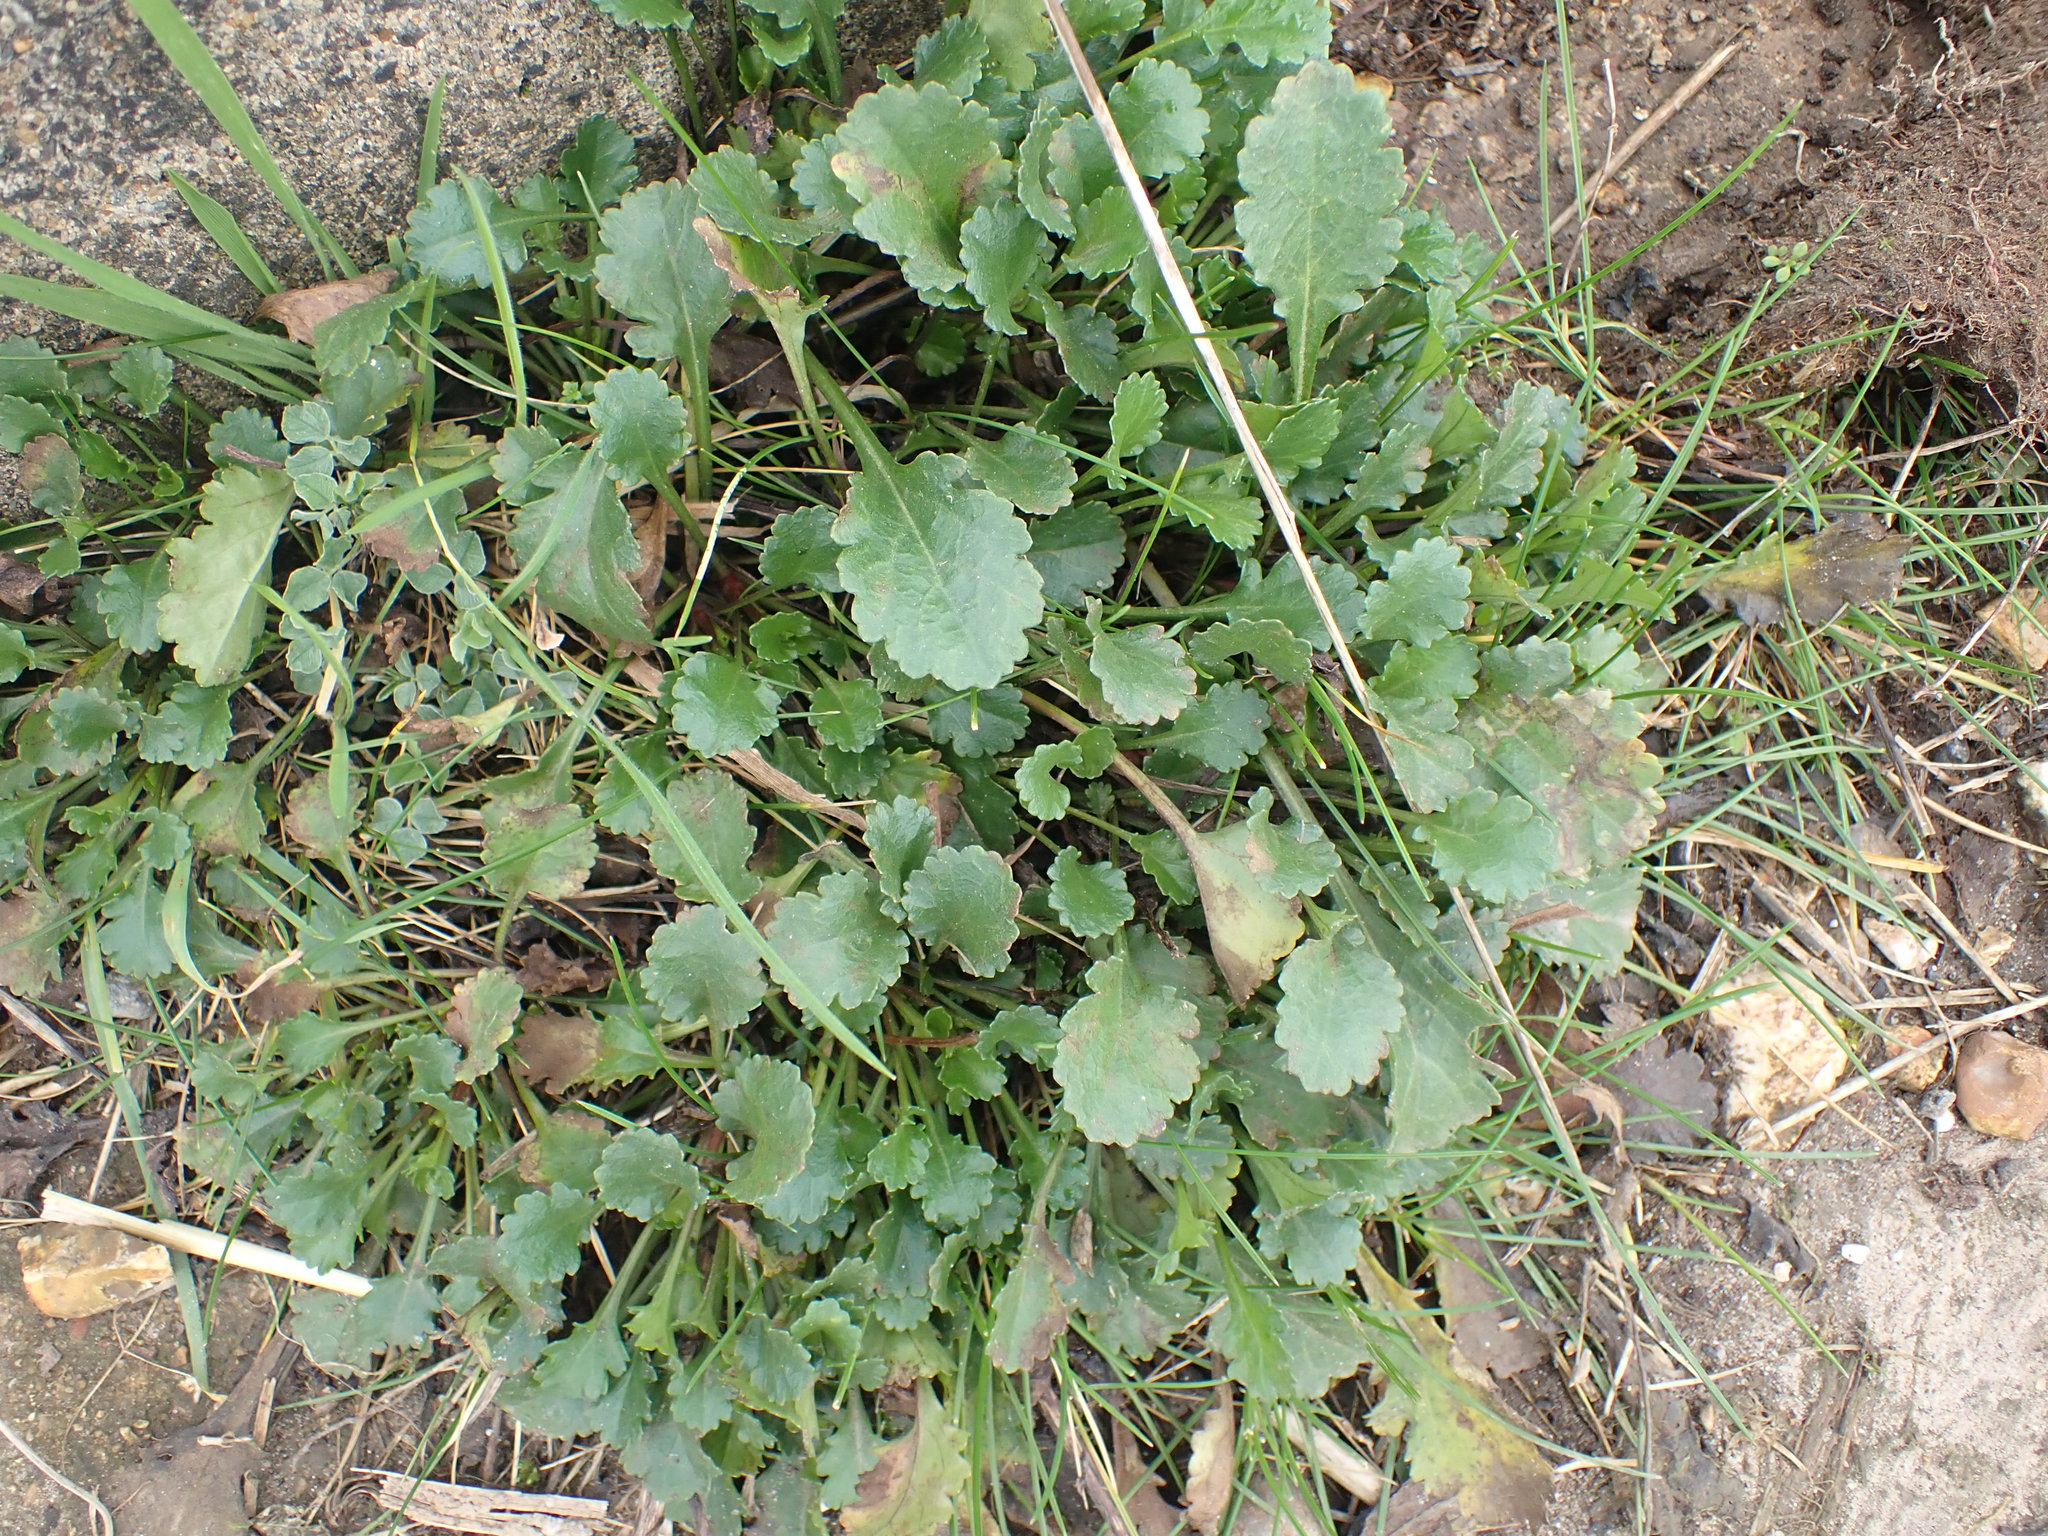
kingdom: Plantae
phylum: Tracheophyta
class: Magnoliopsida
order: Asterales
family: Asteraceae
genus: Leucanthemum
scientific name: Leucanthemum vulgare
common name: Oxeye daisy
